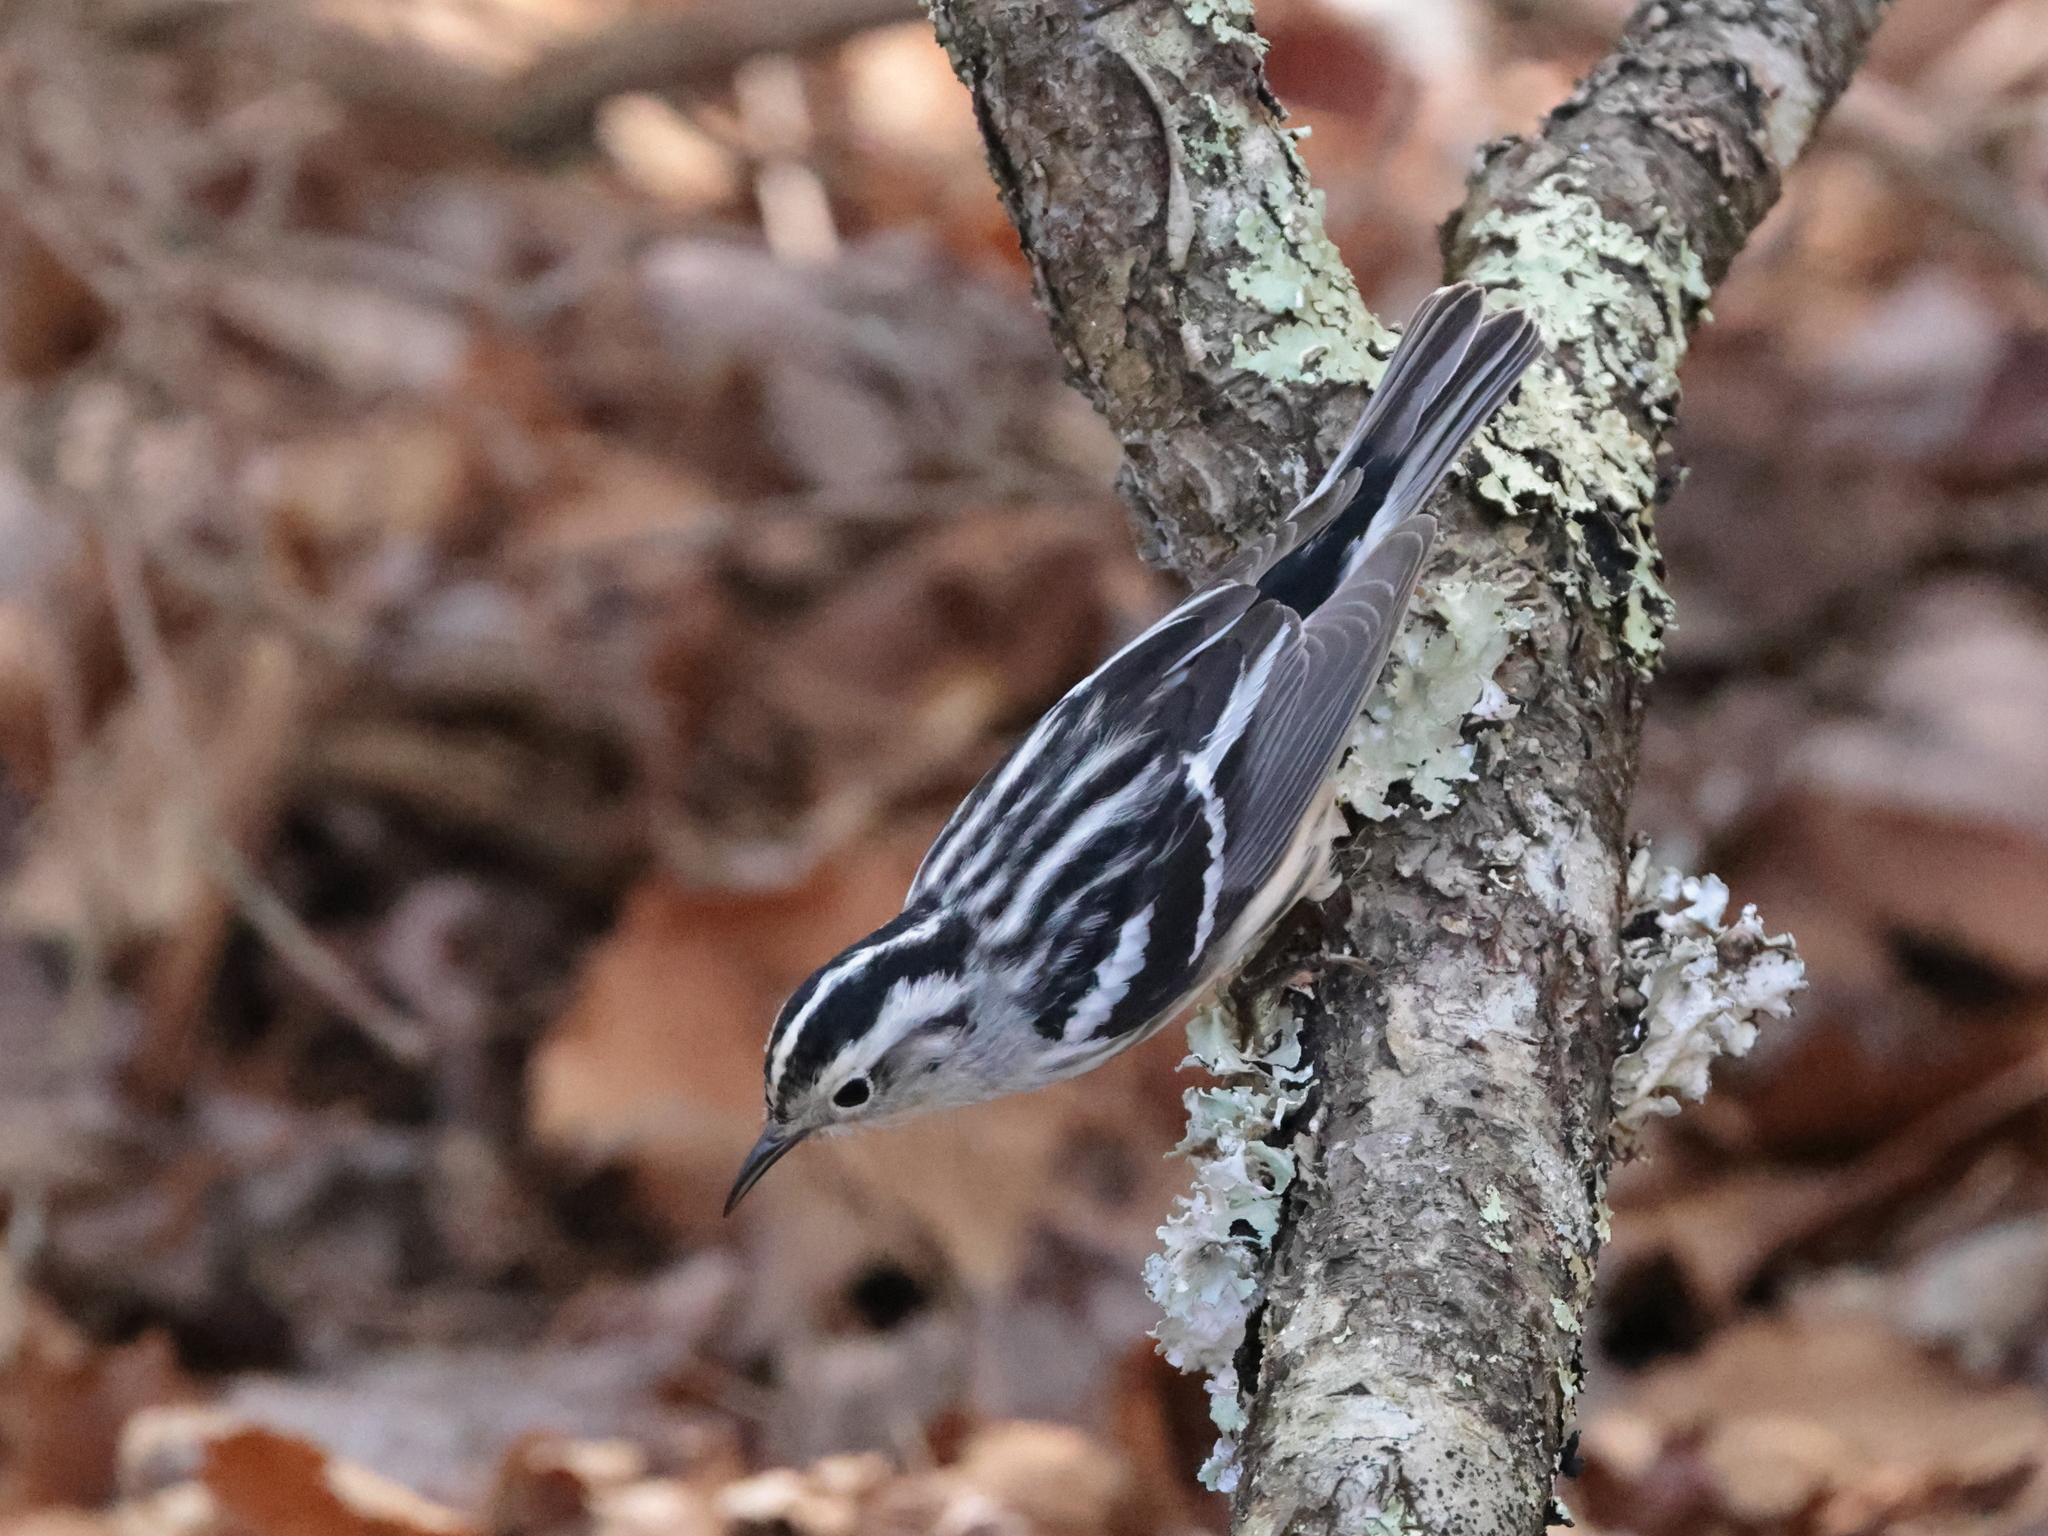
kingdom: Animalia
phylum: Chordata
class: Aves
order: Passeriformes
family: Parulidae
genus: Mniotilta
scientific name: Mniotilta varia
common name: Black-and-white warbler
